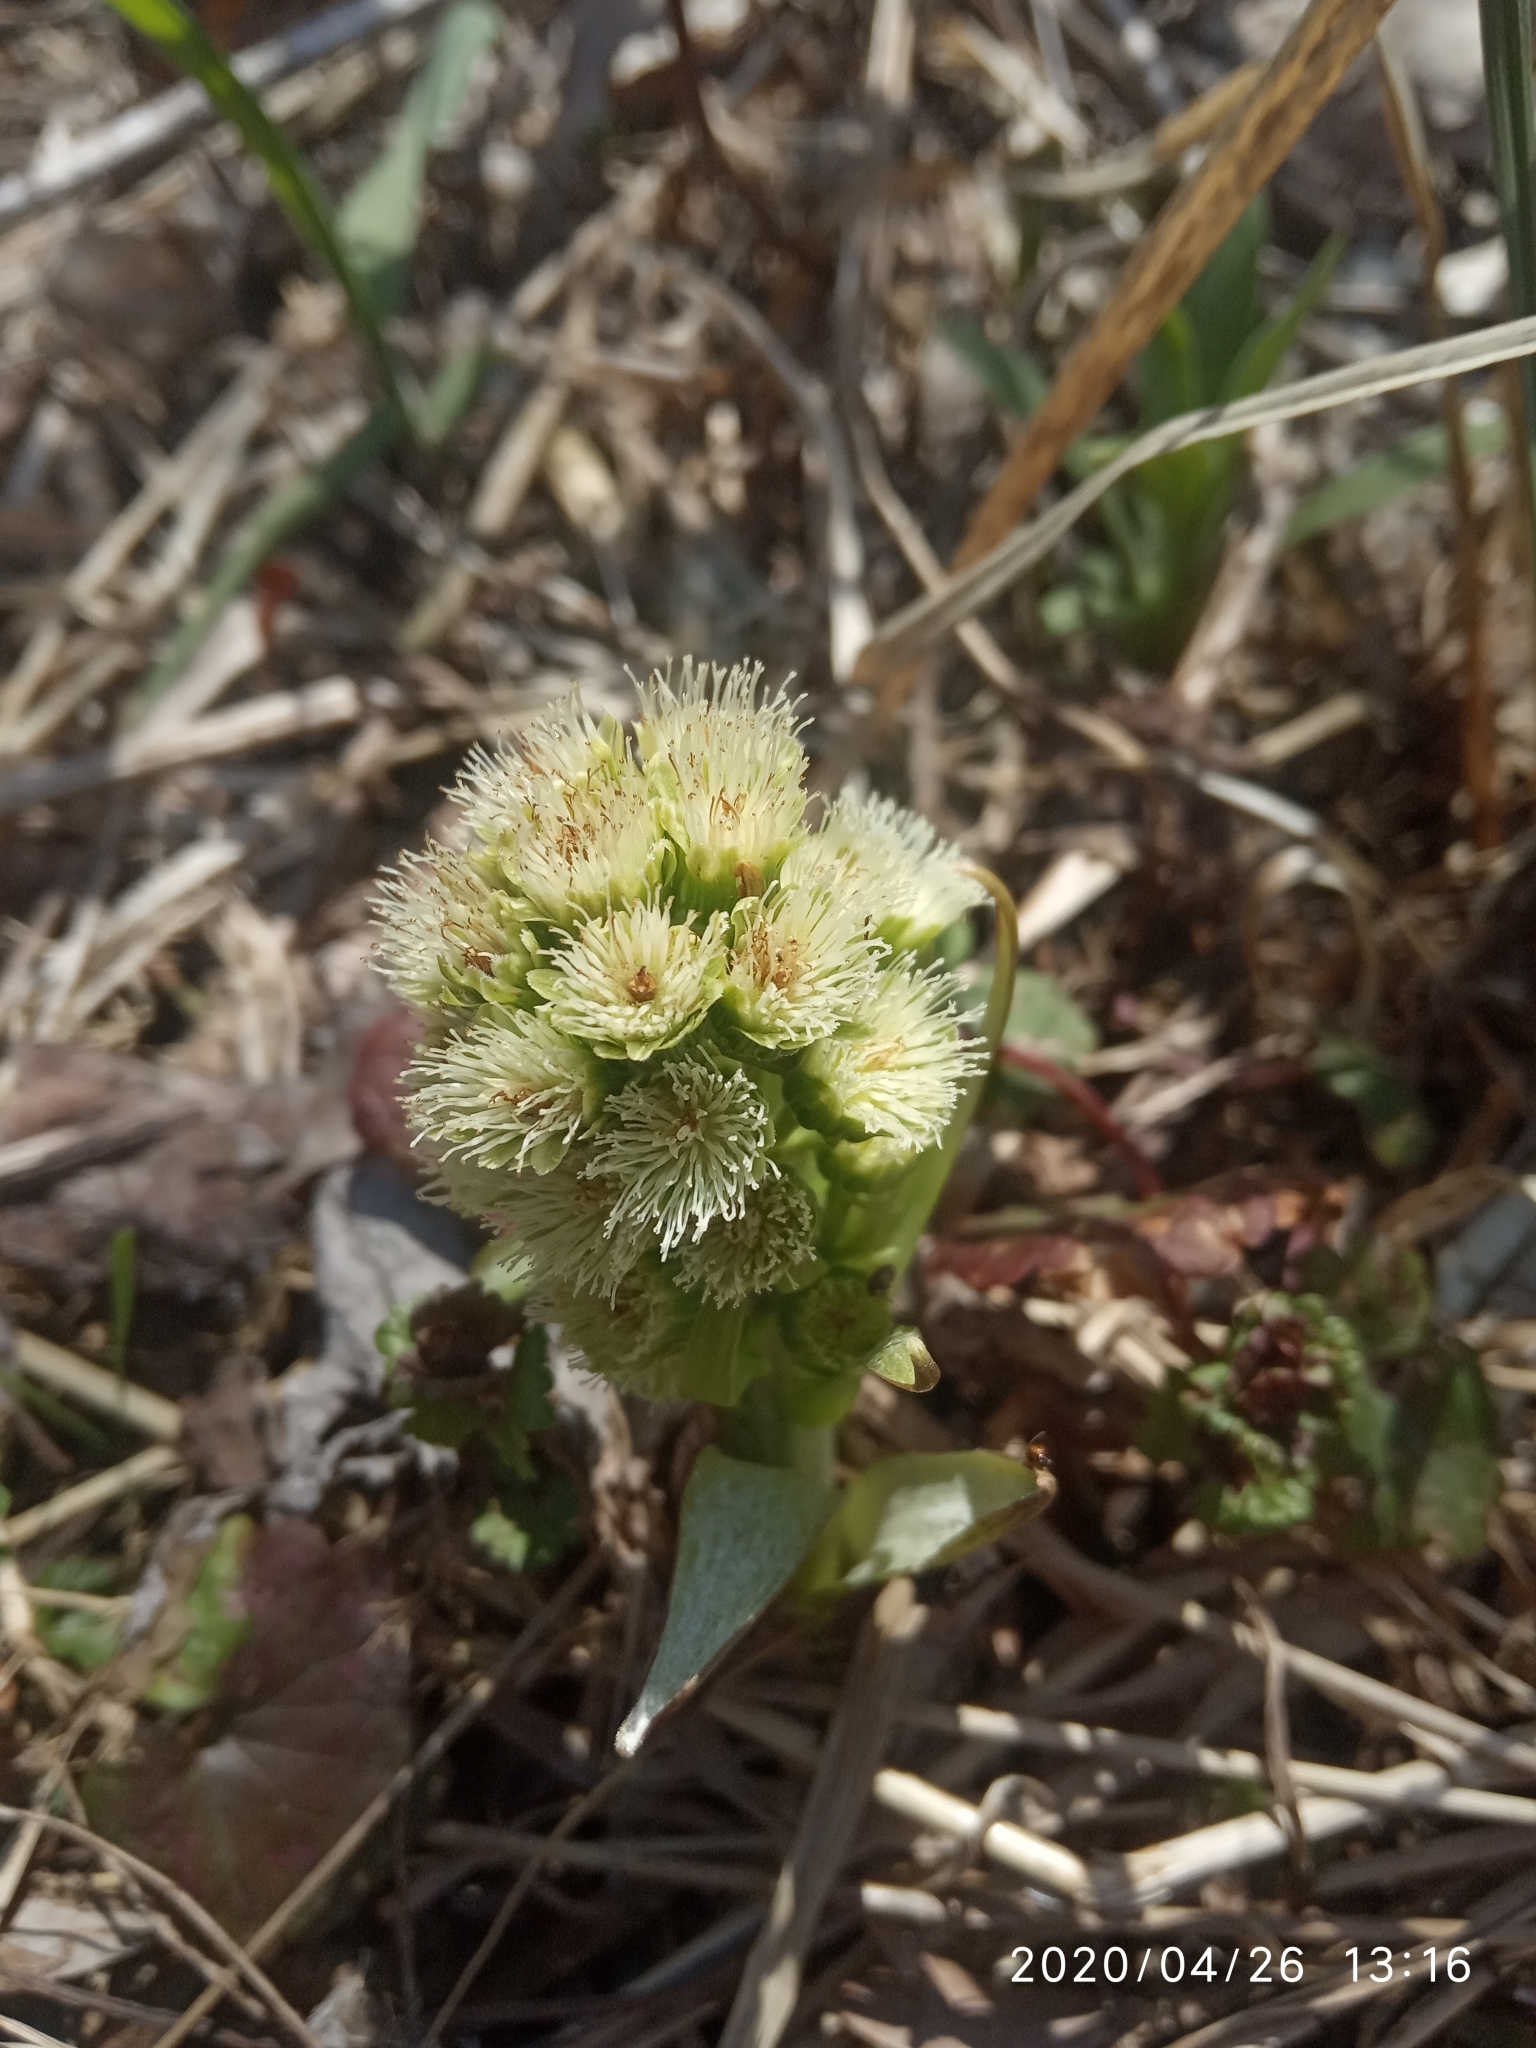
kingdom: Plantae
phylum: Tracheophyta
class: Magnoliopsida
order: Asterales
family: Asteraceae
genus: Petasites
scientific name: Petasites spurius
